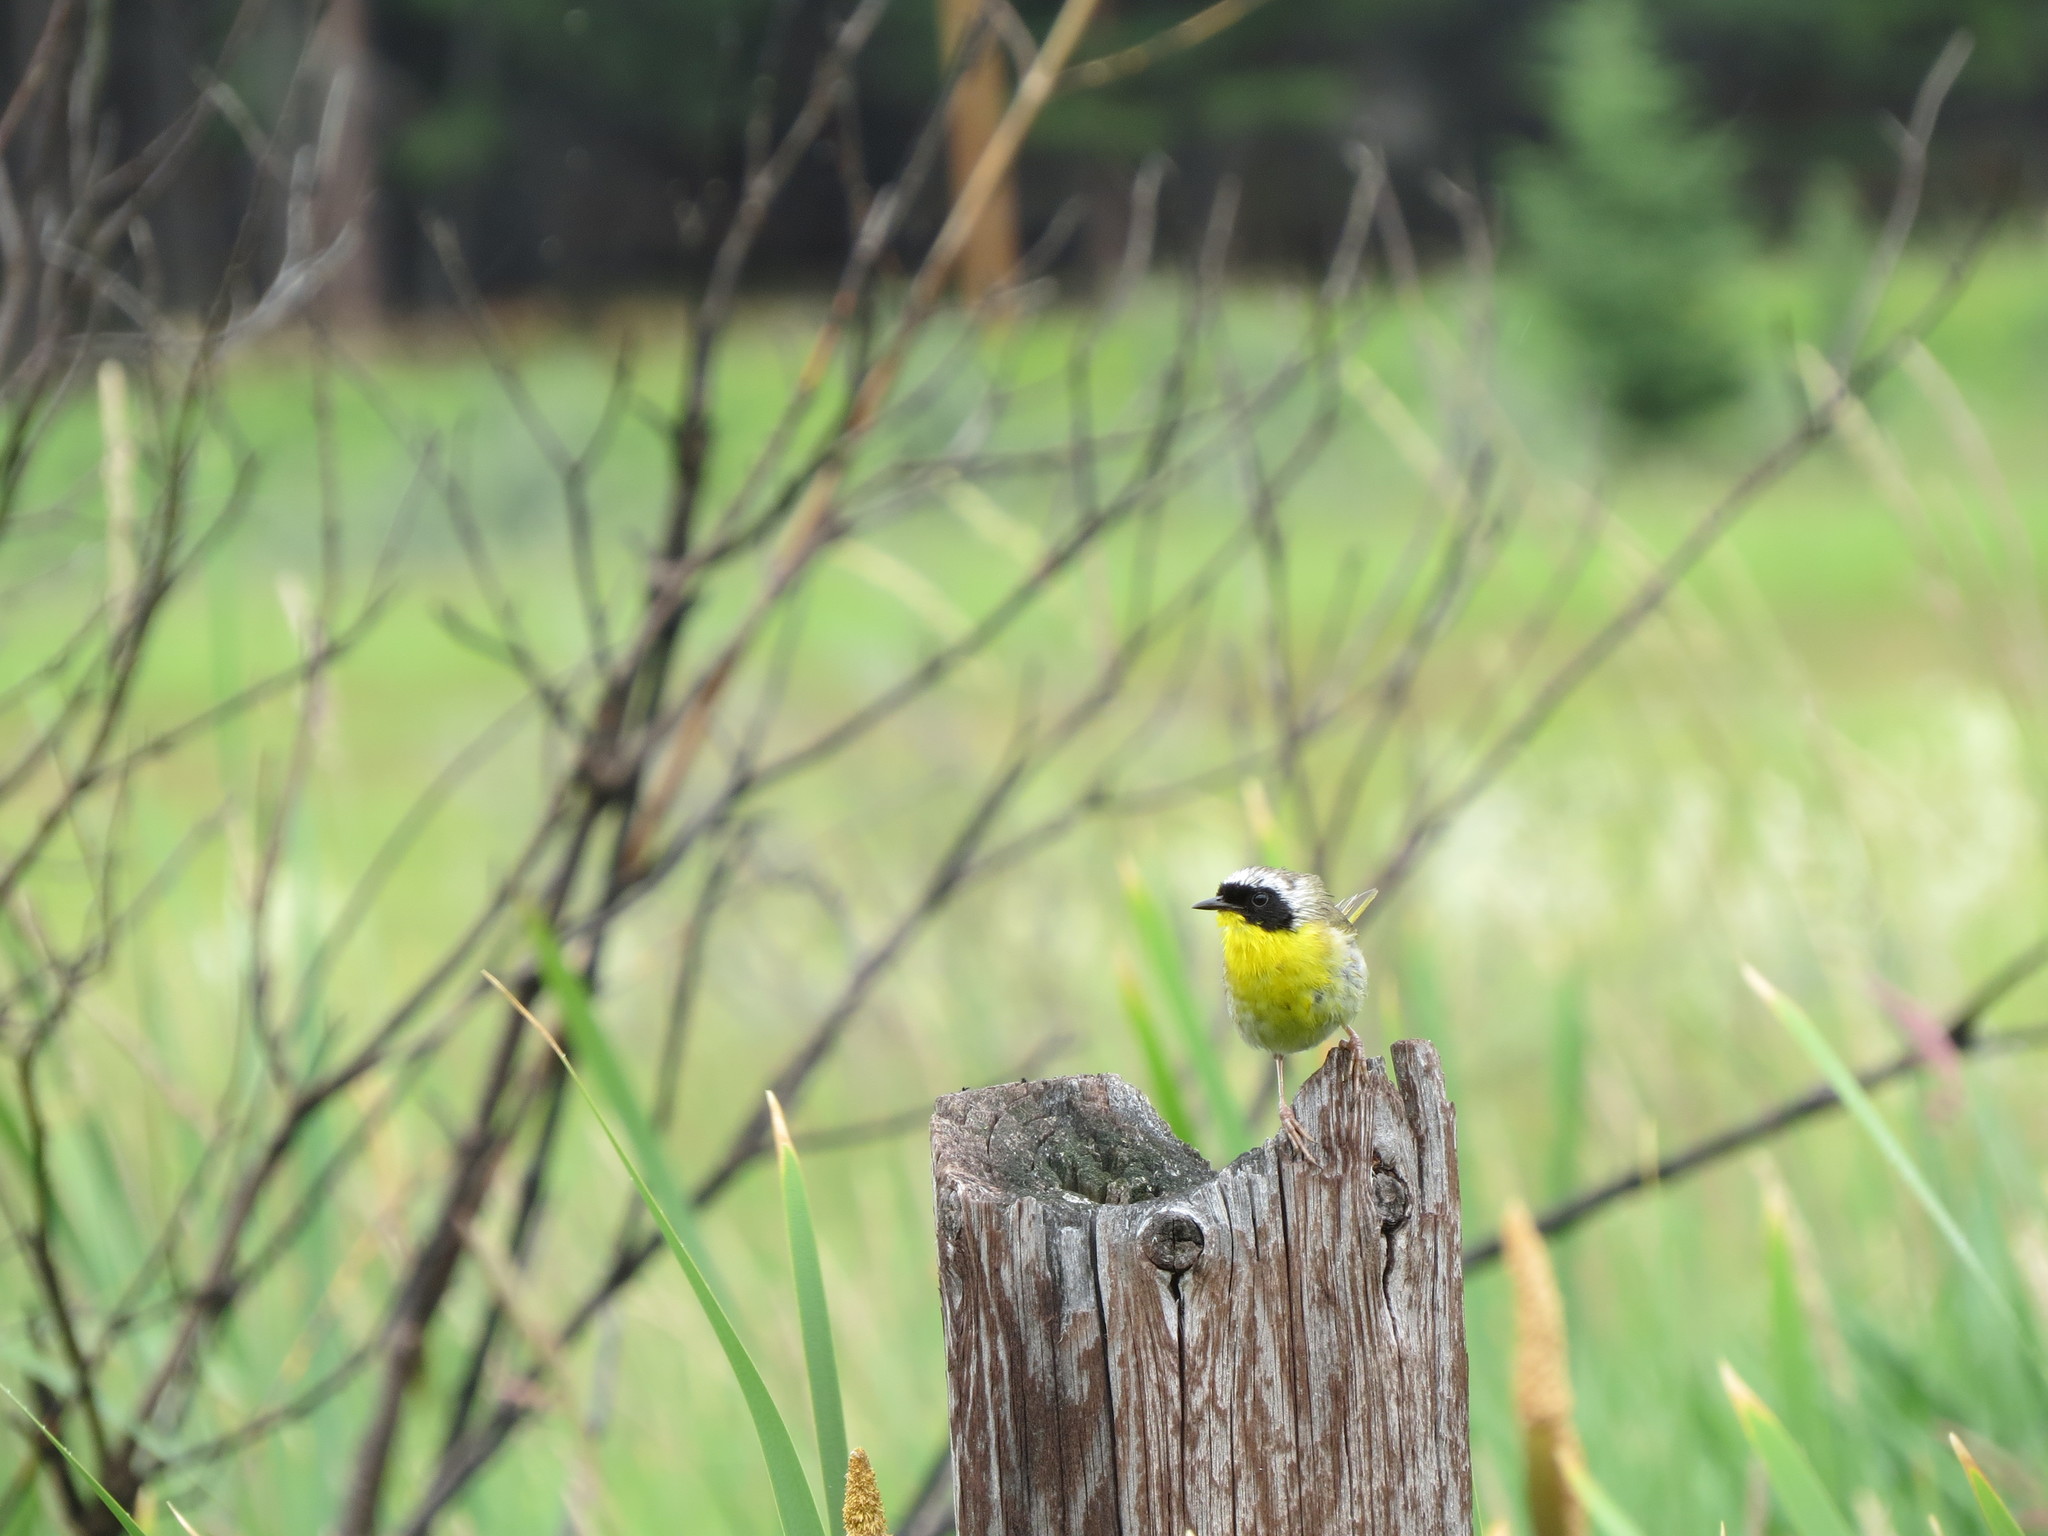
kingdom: Animalia
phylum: Chordata
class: Aves
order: Passeriformes
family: Parulidae
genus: Geothlypis
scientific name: Geothlypis trichas
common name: Common yellowthroat
